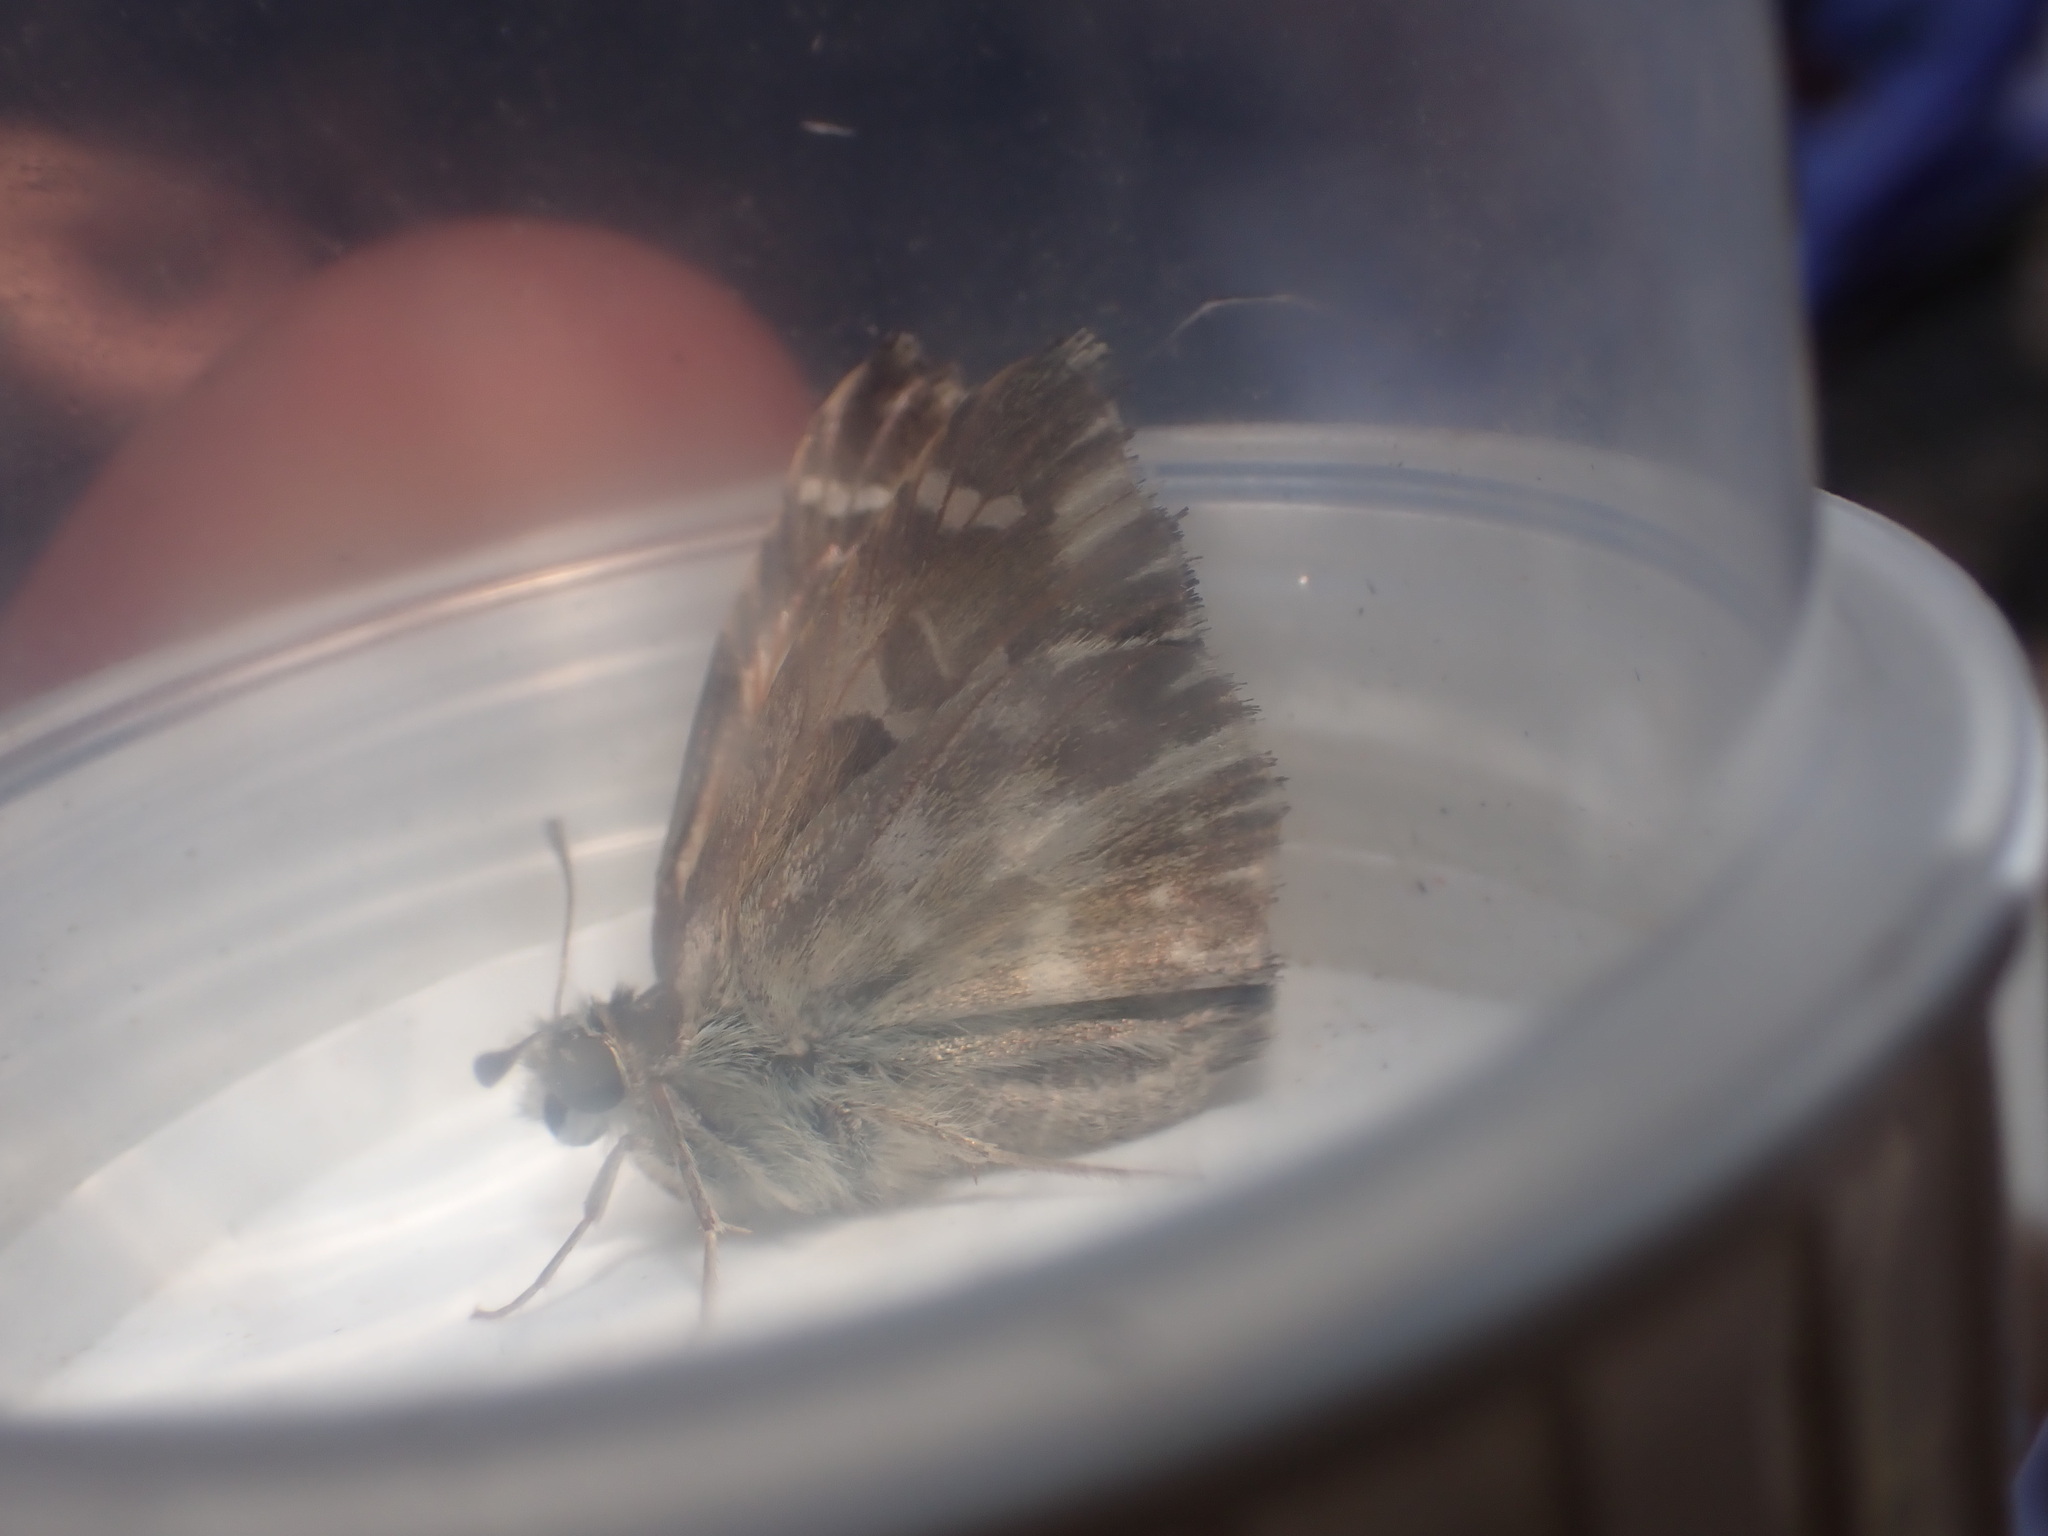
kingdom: Animalia
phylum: Arthropoda
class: Insecta
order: Lepidoptera
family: Hesperiidae
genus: Carcharodus
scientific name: Carcharodus alceae
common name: Mallow skipper
